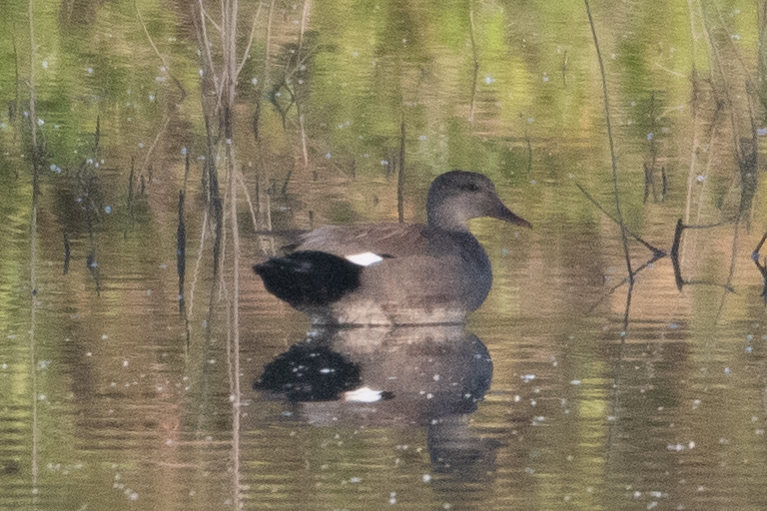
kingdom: Animalia
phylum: Chordata
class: Aves
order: Anseriformes
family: Anatidae
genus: Mareca
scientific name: Mareca strepera
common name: Gadwall
